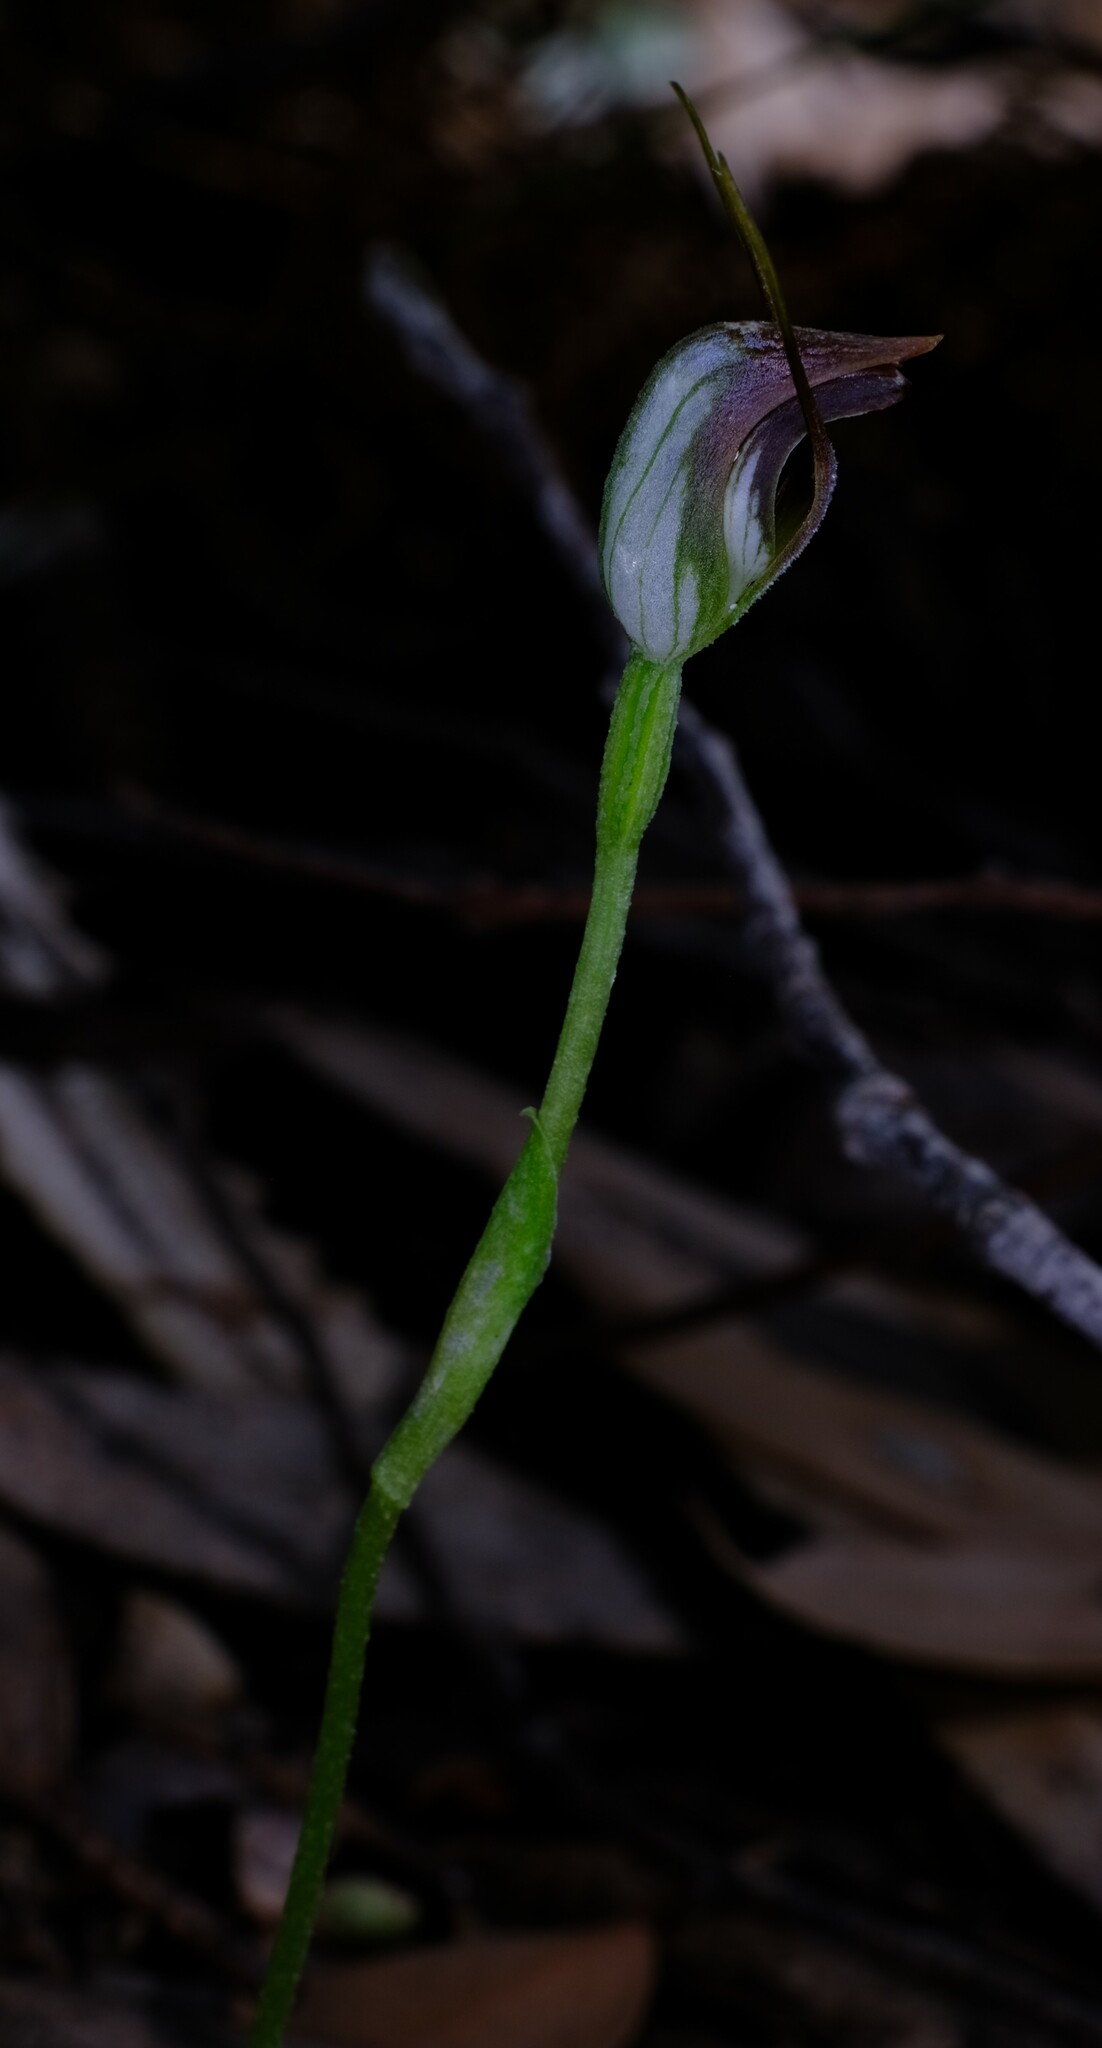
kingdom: Plantae
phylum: Tracheophyta
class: Liliopsida
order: Asparagales
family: Orchidaceae
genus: Pterostylis
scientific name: Pterostylis pedunculata
